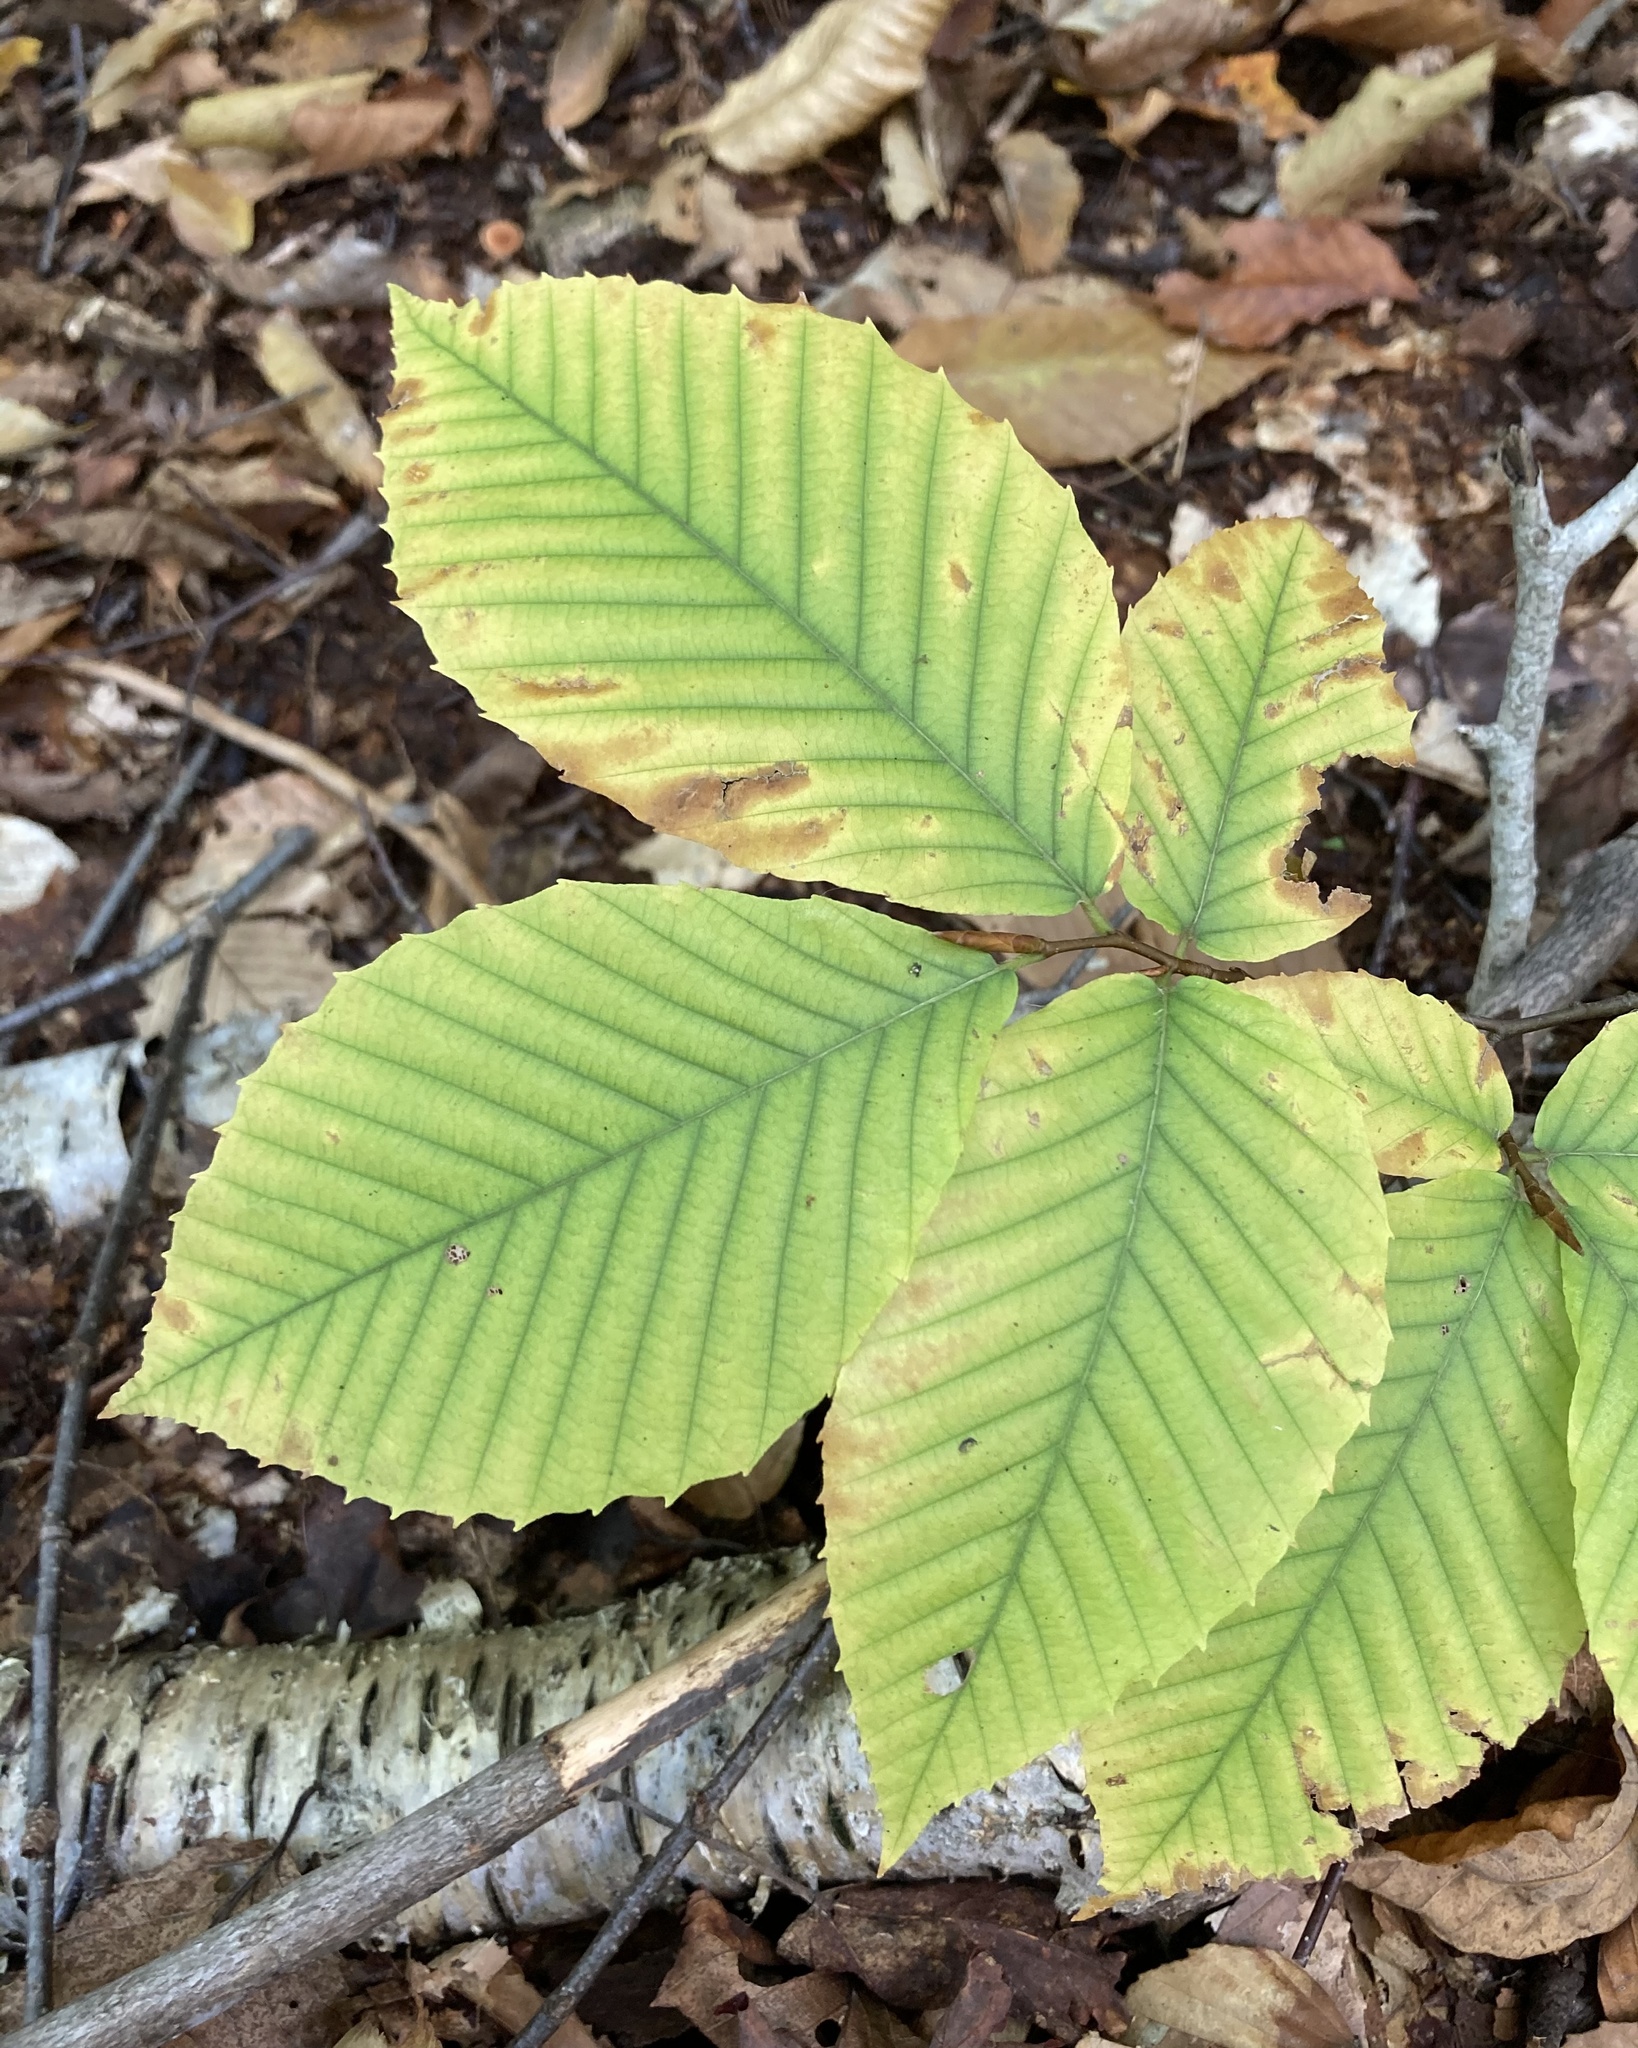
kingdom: Plantae
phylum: Tracheophyta
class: Magnoliopsida
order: Fagales
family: Fagaceae
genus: Fagus
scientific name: Fagus grandifolia
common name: American beech
